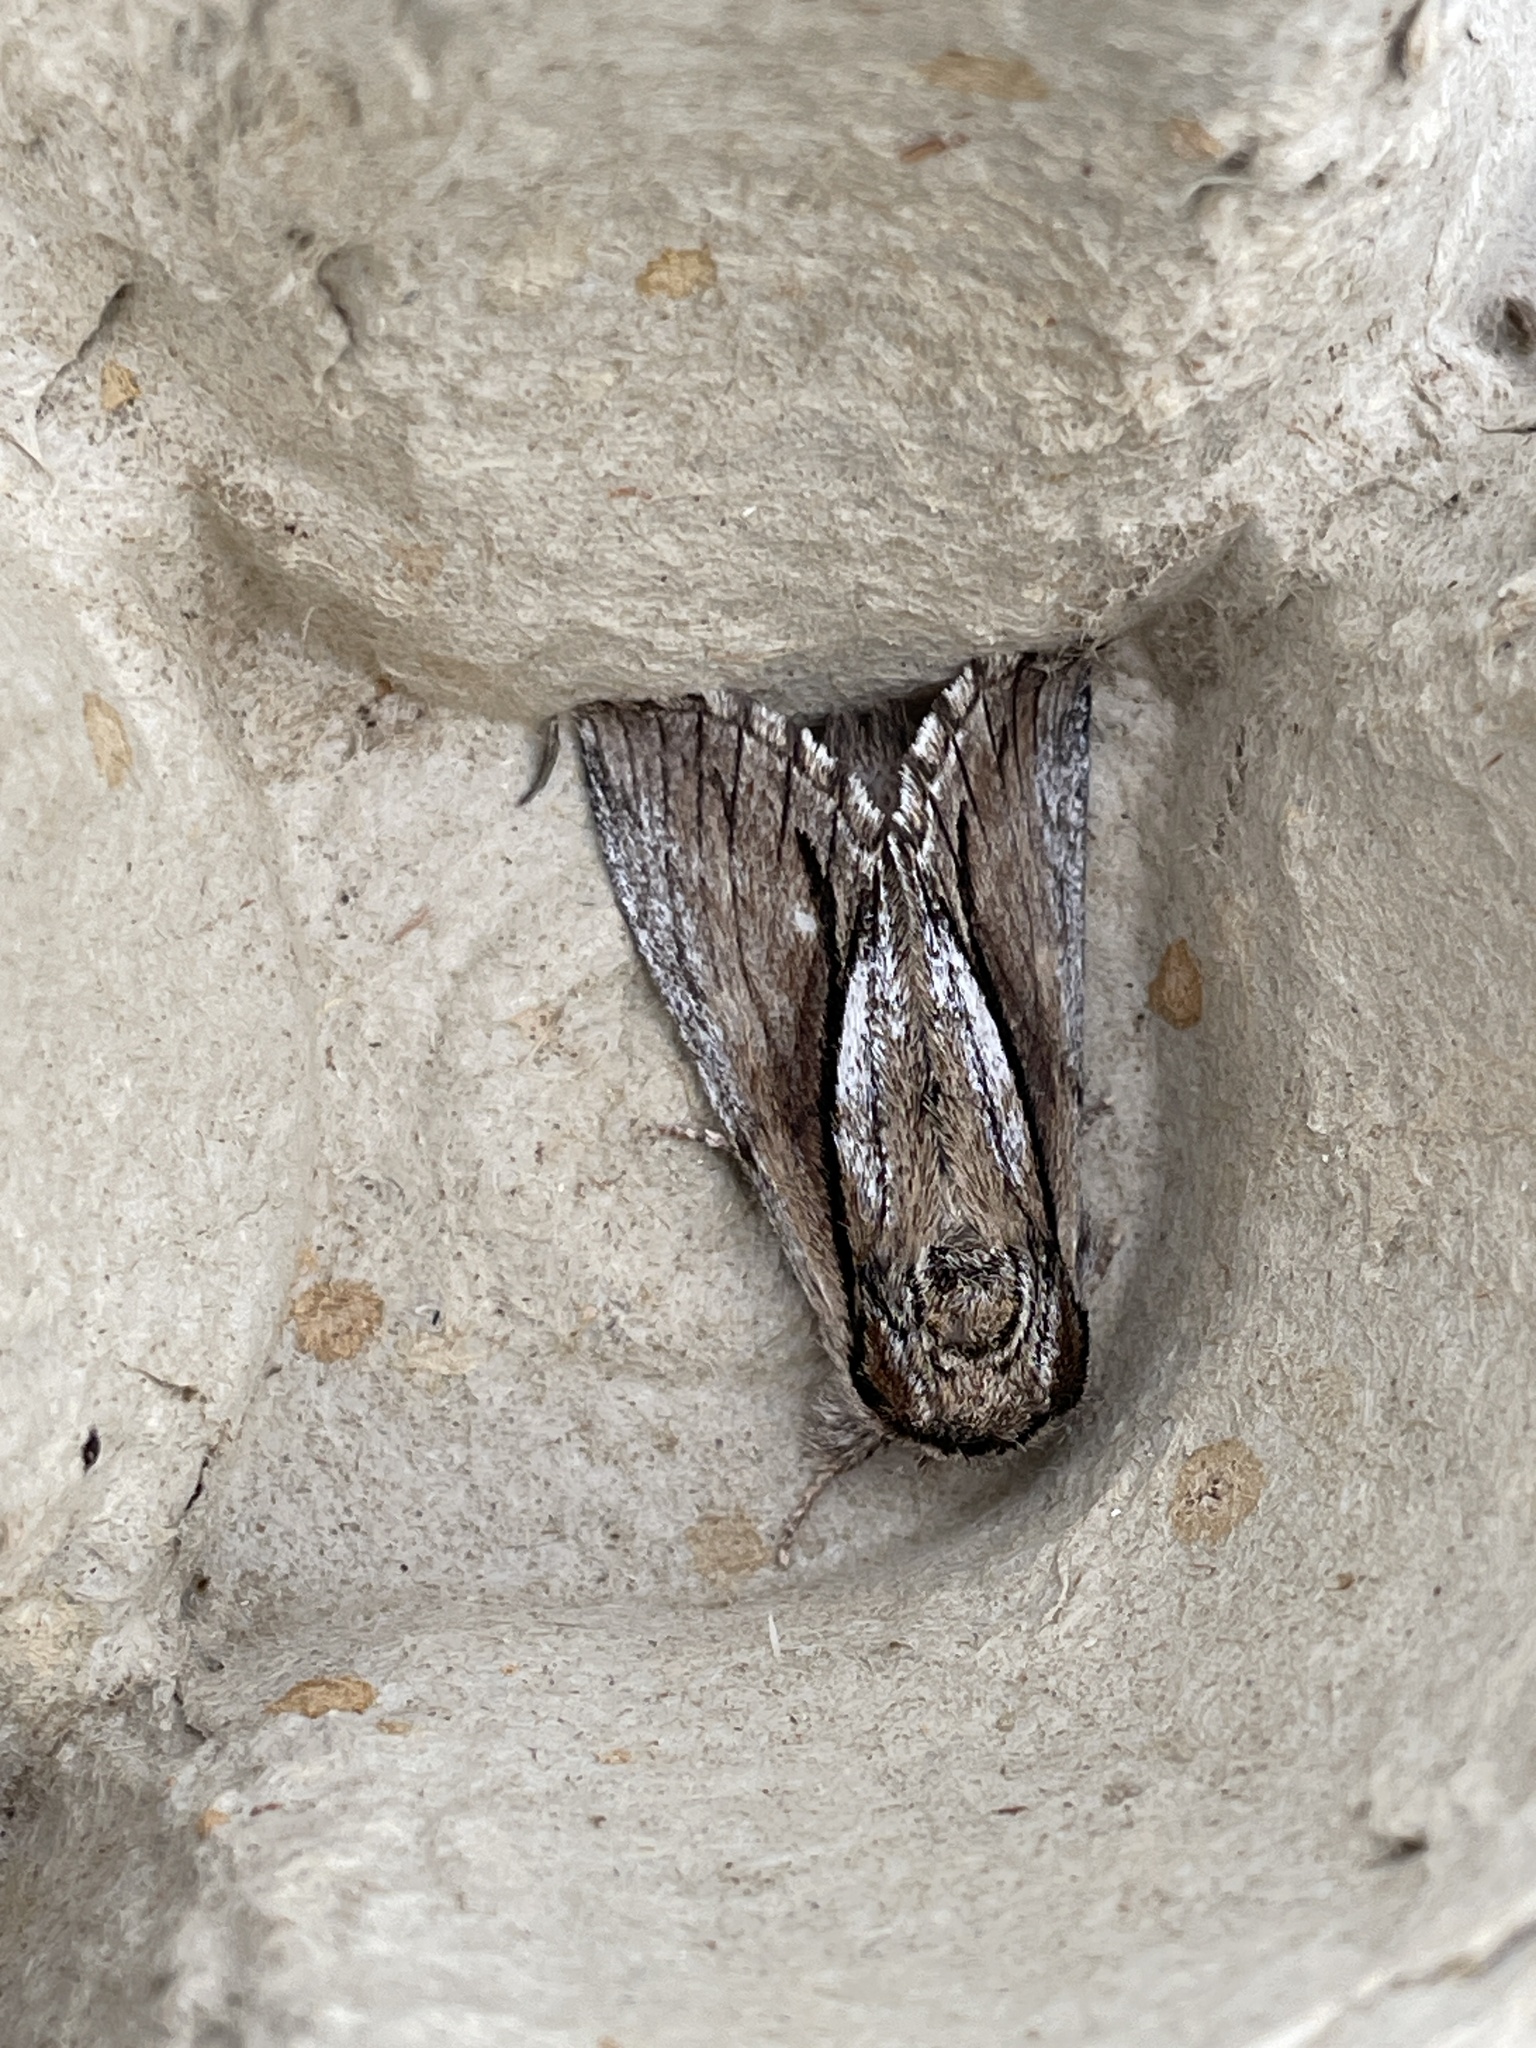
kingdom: Animalia
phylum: Arthropoda
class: Insecta
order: Lepidoptera
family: Notodontidae
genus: Paradrymonia
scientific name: Paradrymonia vittata
